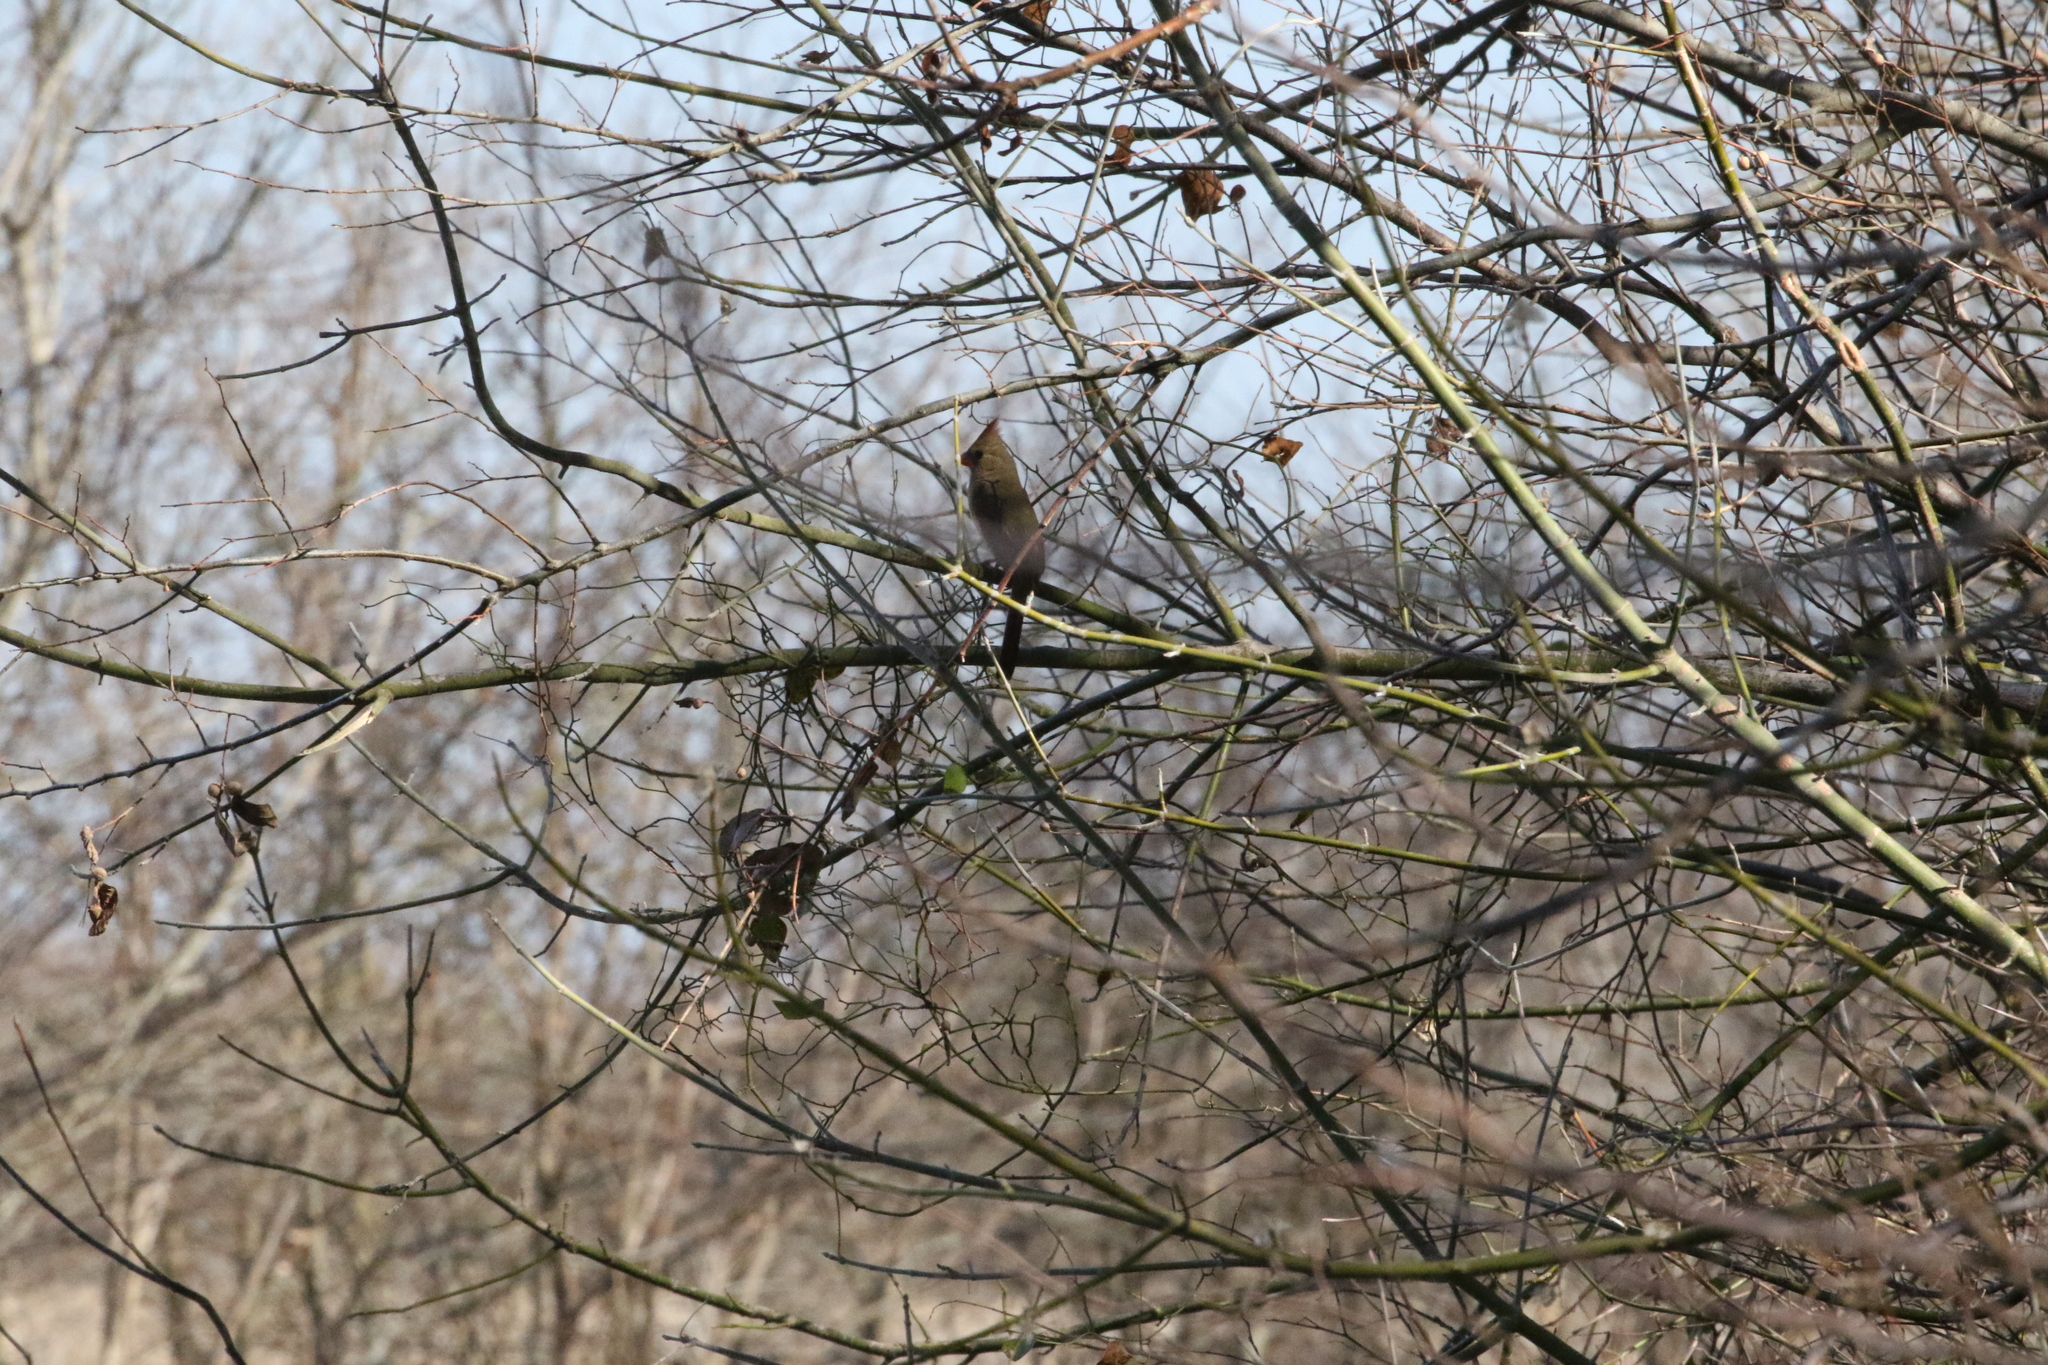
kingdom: Animalia
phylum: Chordata
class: Aves
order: Passeriformes
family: Cardinalidae
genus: Cardinalis
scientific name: Cardinalis cardinalis
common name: Northern cardinal
